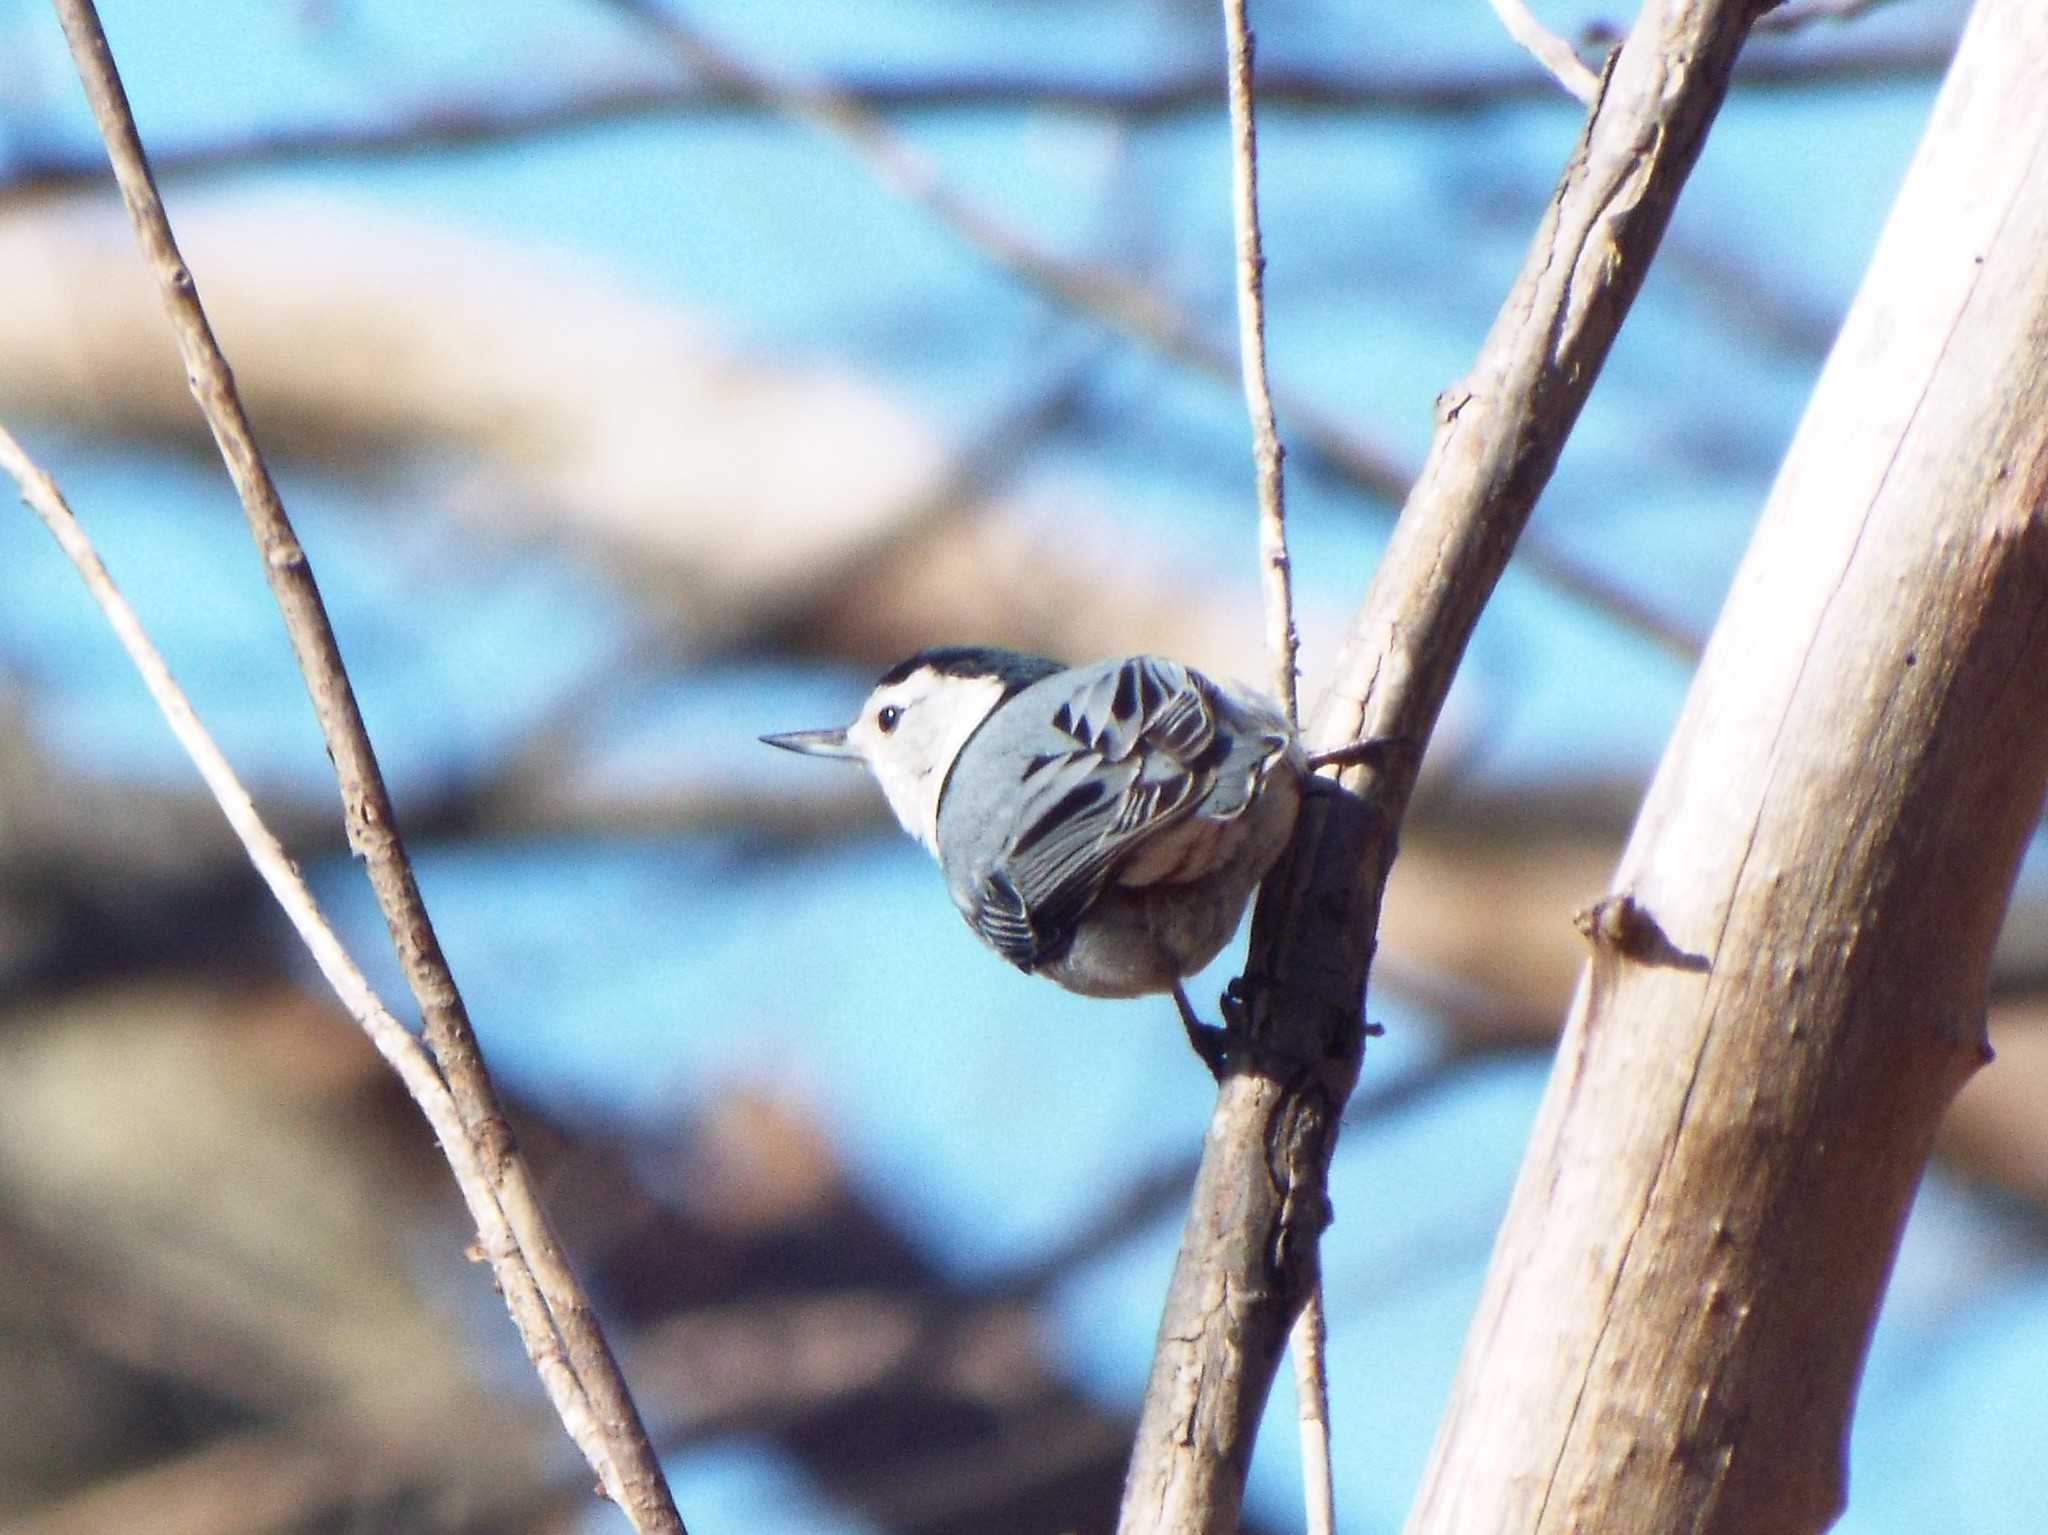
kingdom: Animalia
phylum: Chordata
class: Aves
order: Passeriformes
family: Sittidae
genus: Sitta
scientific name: Sitta carolinensis
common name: White-breasted nuthatch
